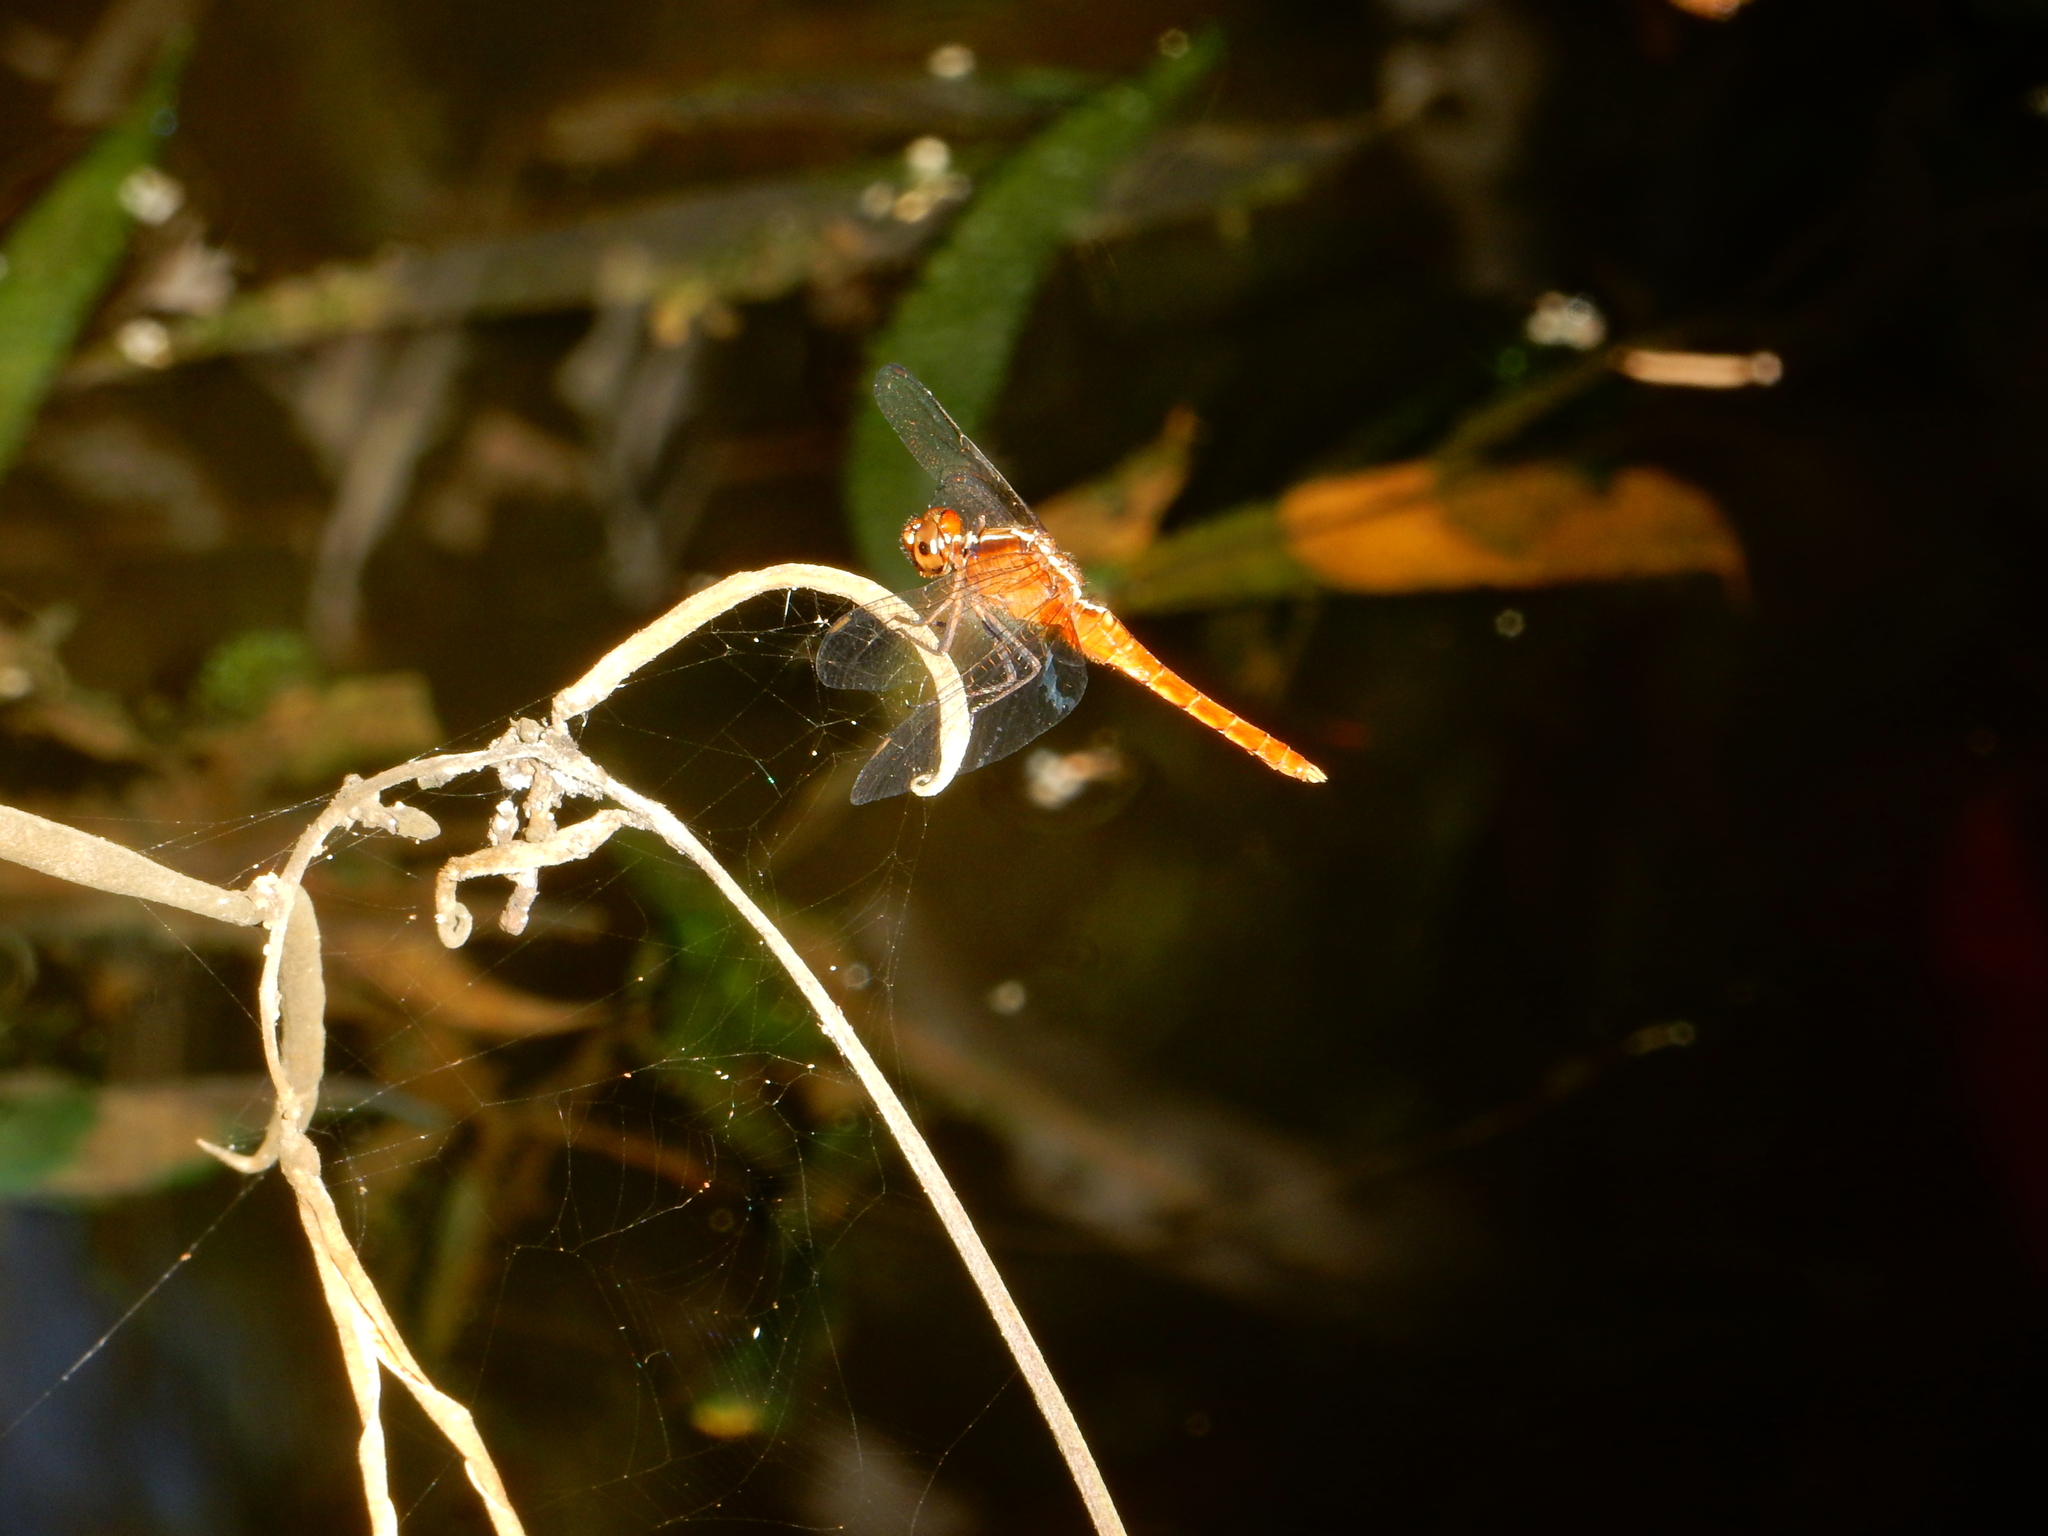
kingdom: Animalia
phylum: Arthropoda
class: Insecta
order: Odonata
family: Libellulidae
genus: Rhodothemis
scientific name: Rhodothemis lieftincki
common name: Red arrow
